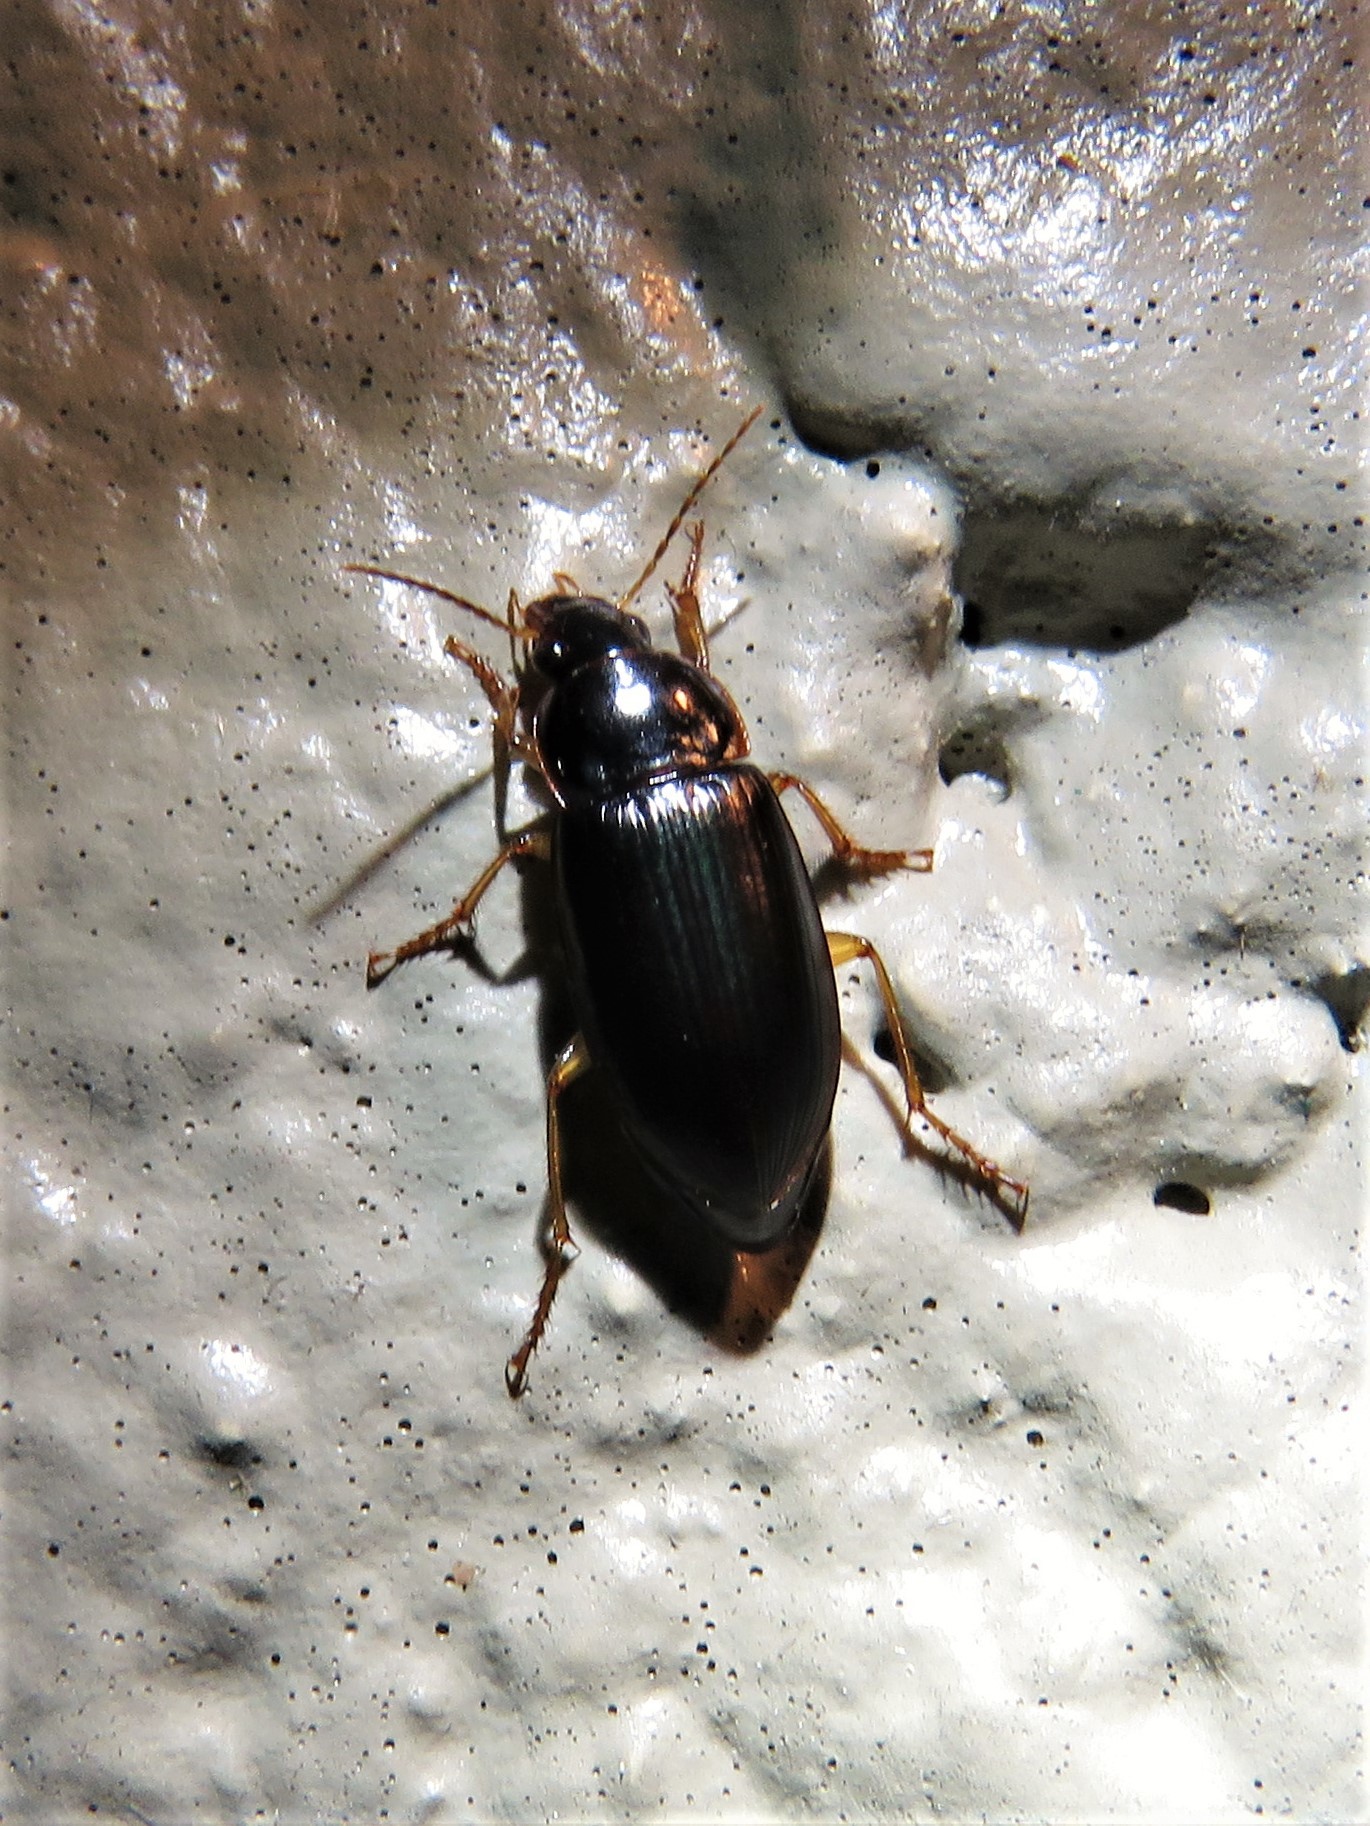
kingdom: Animalia
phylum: Arthropoda
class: Insecta
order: Coleoptera
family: Carabidae
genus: Notiobia
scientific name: Notiobia terminata
